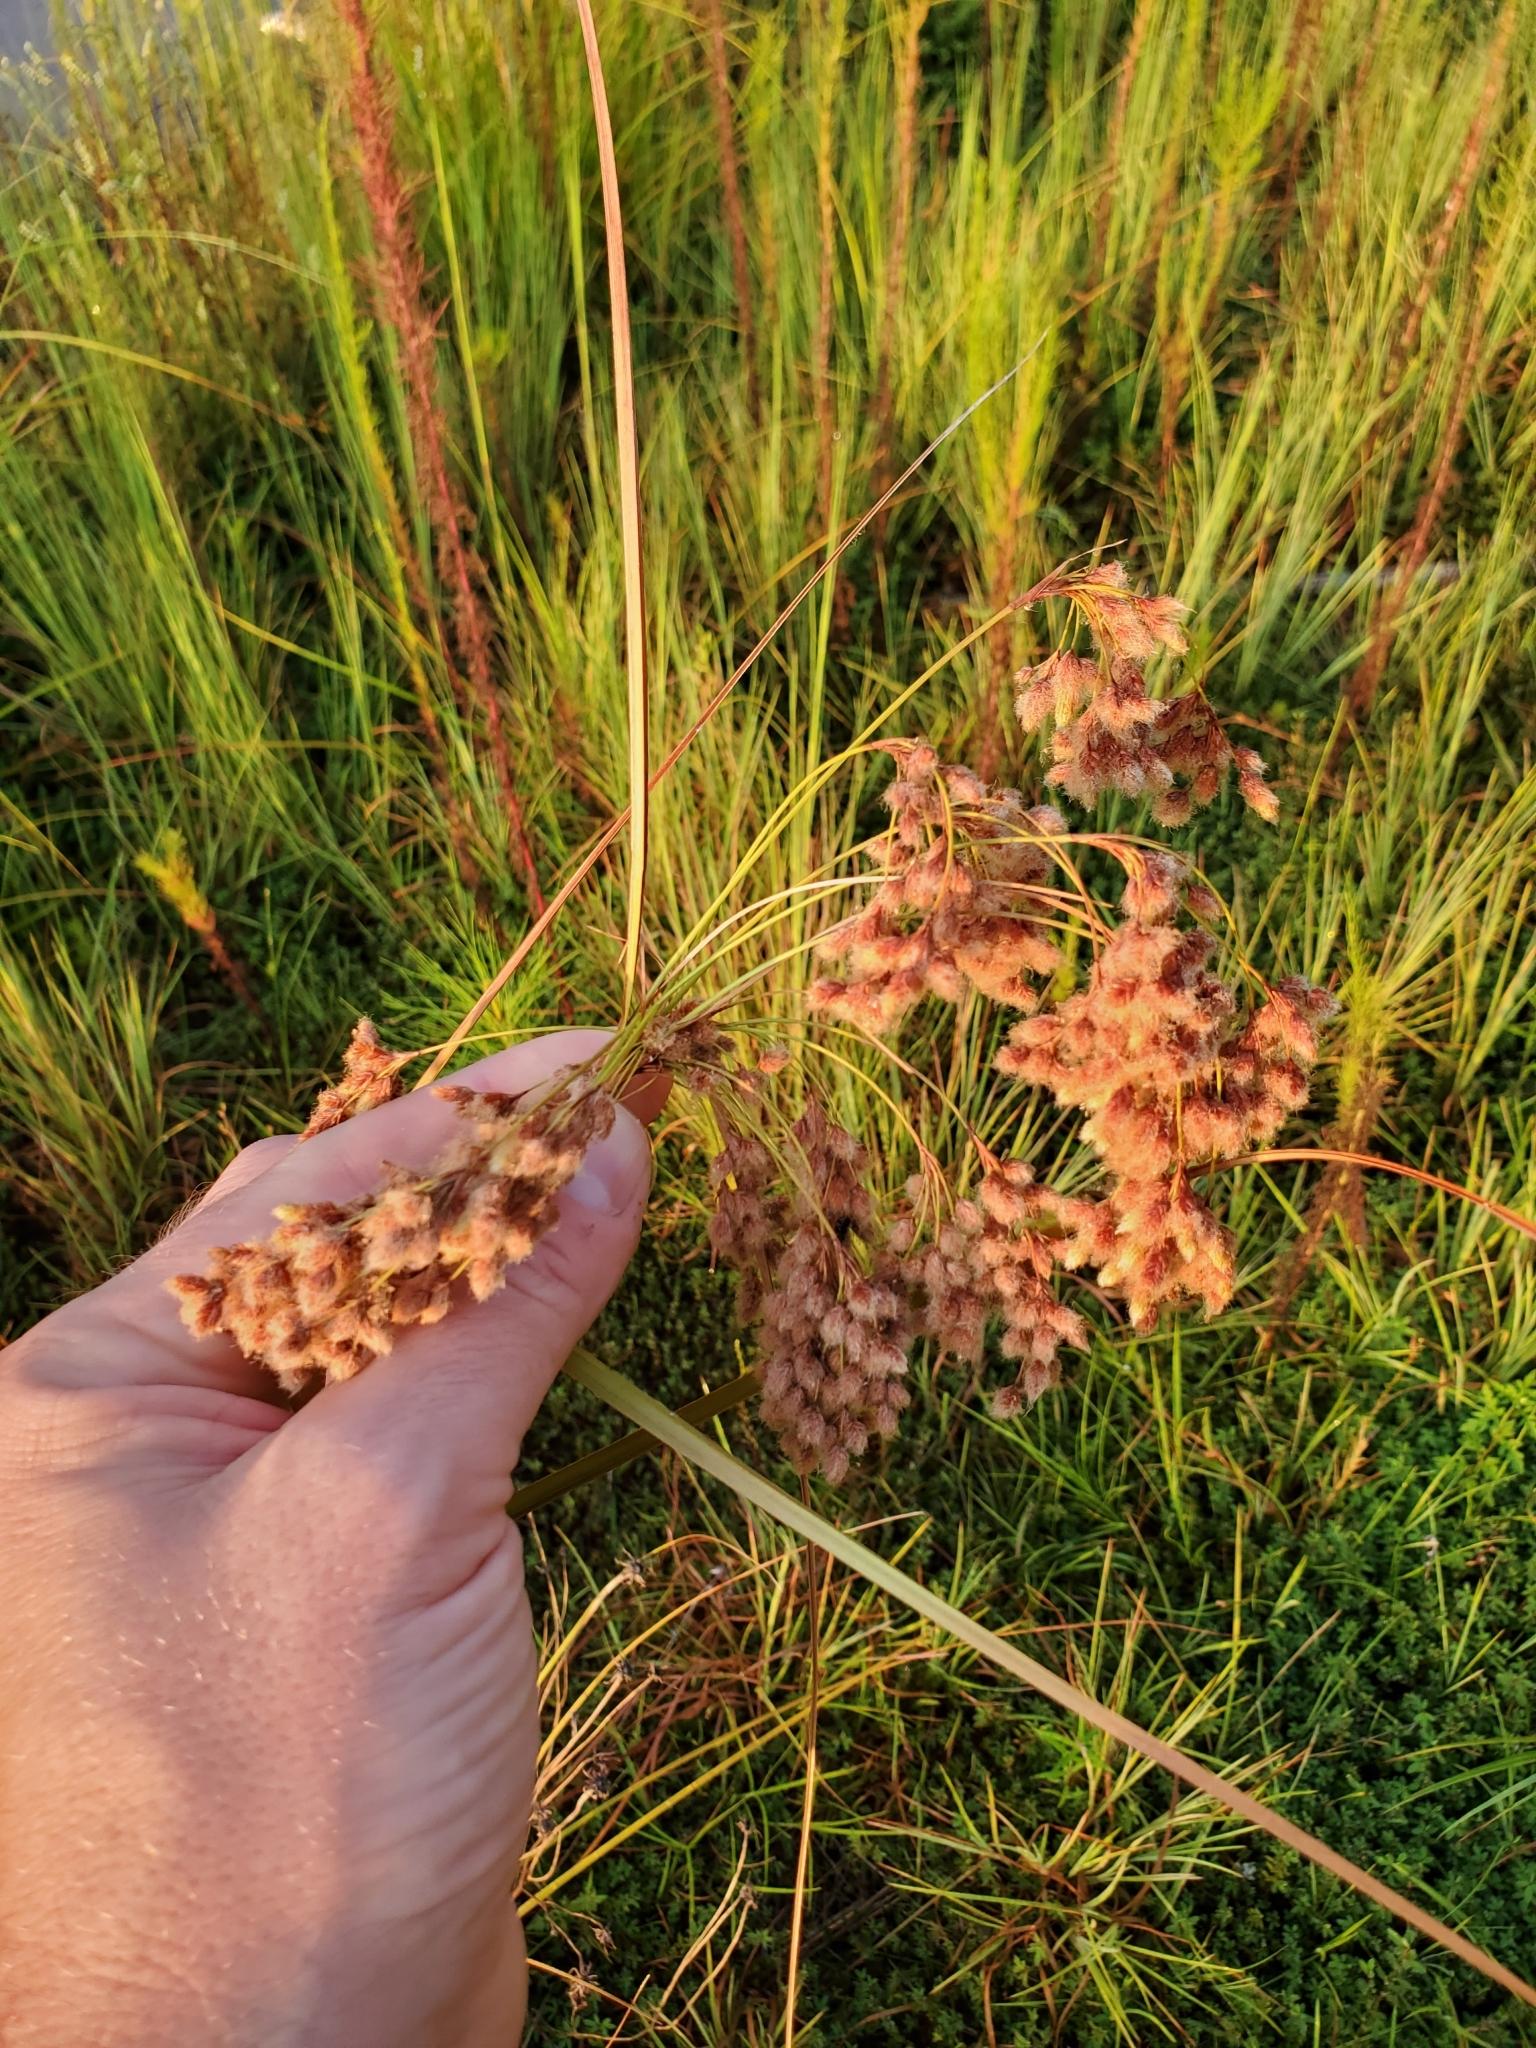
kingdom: Plantae
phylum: Tracheophyta
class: Liliopsida
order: Poales
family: Cyperaceae
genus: Scirpus
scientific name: Scirpus cyperinus
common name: Black-sheathed bulrush
